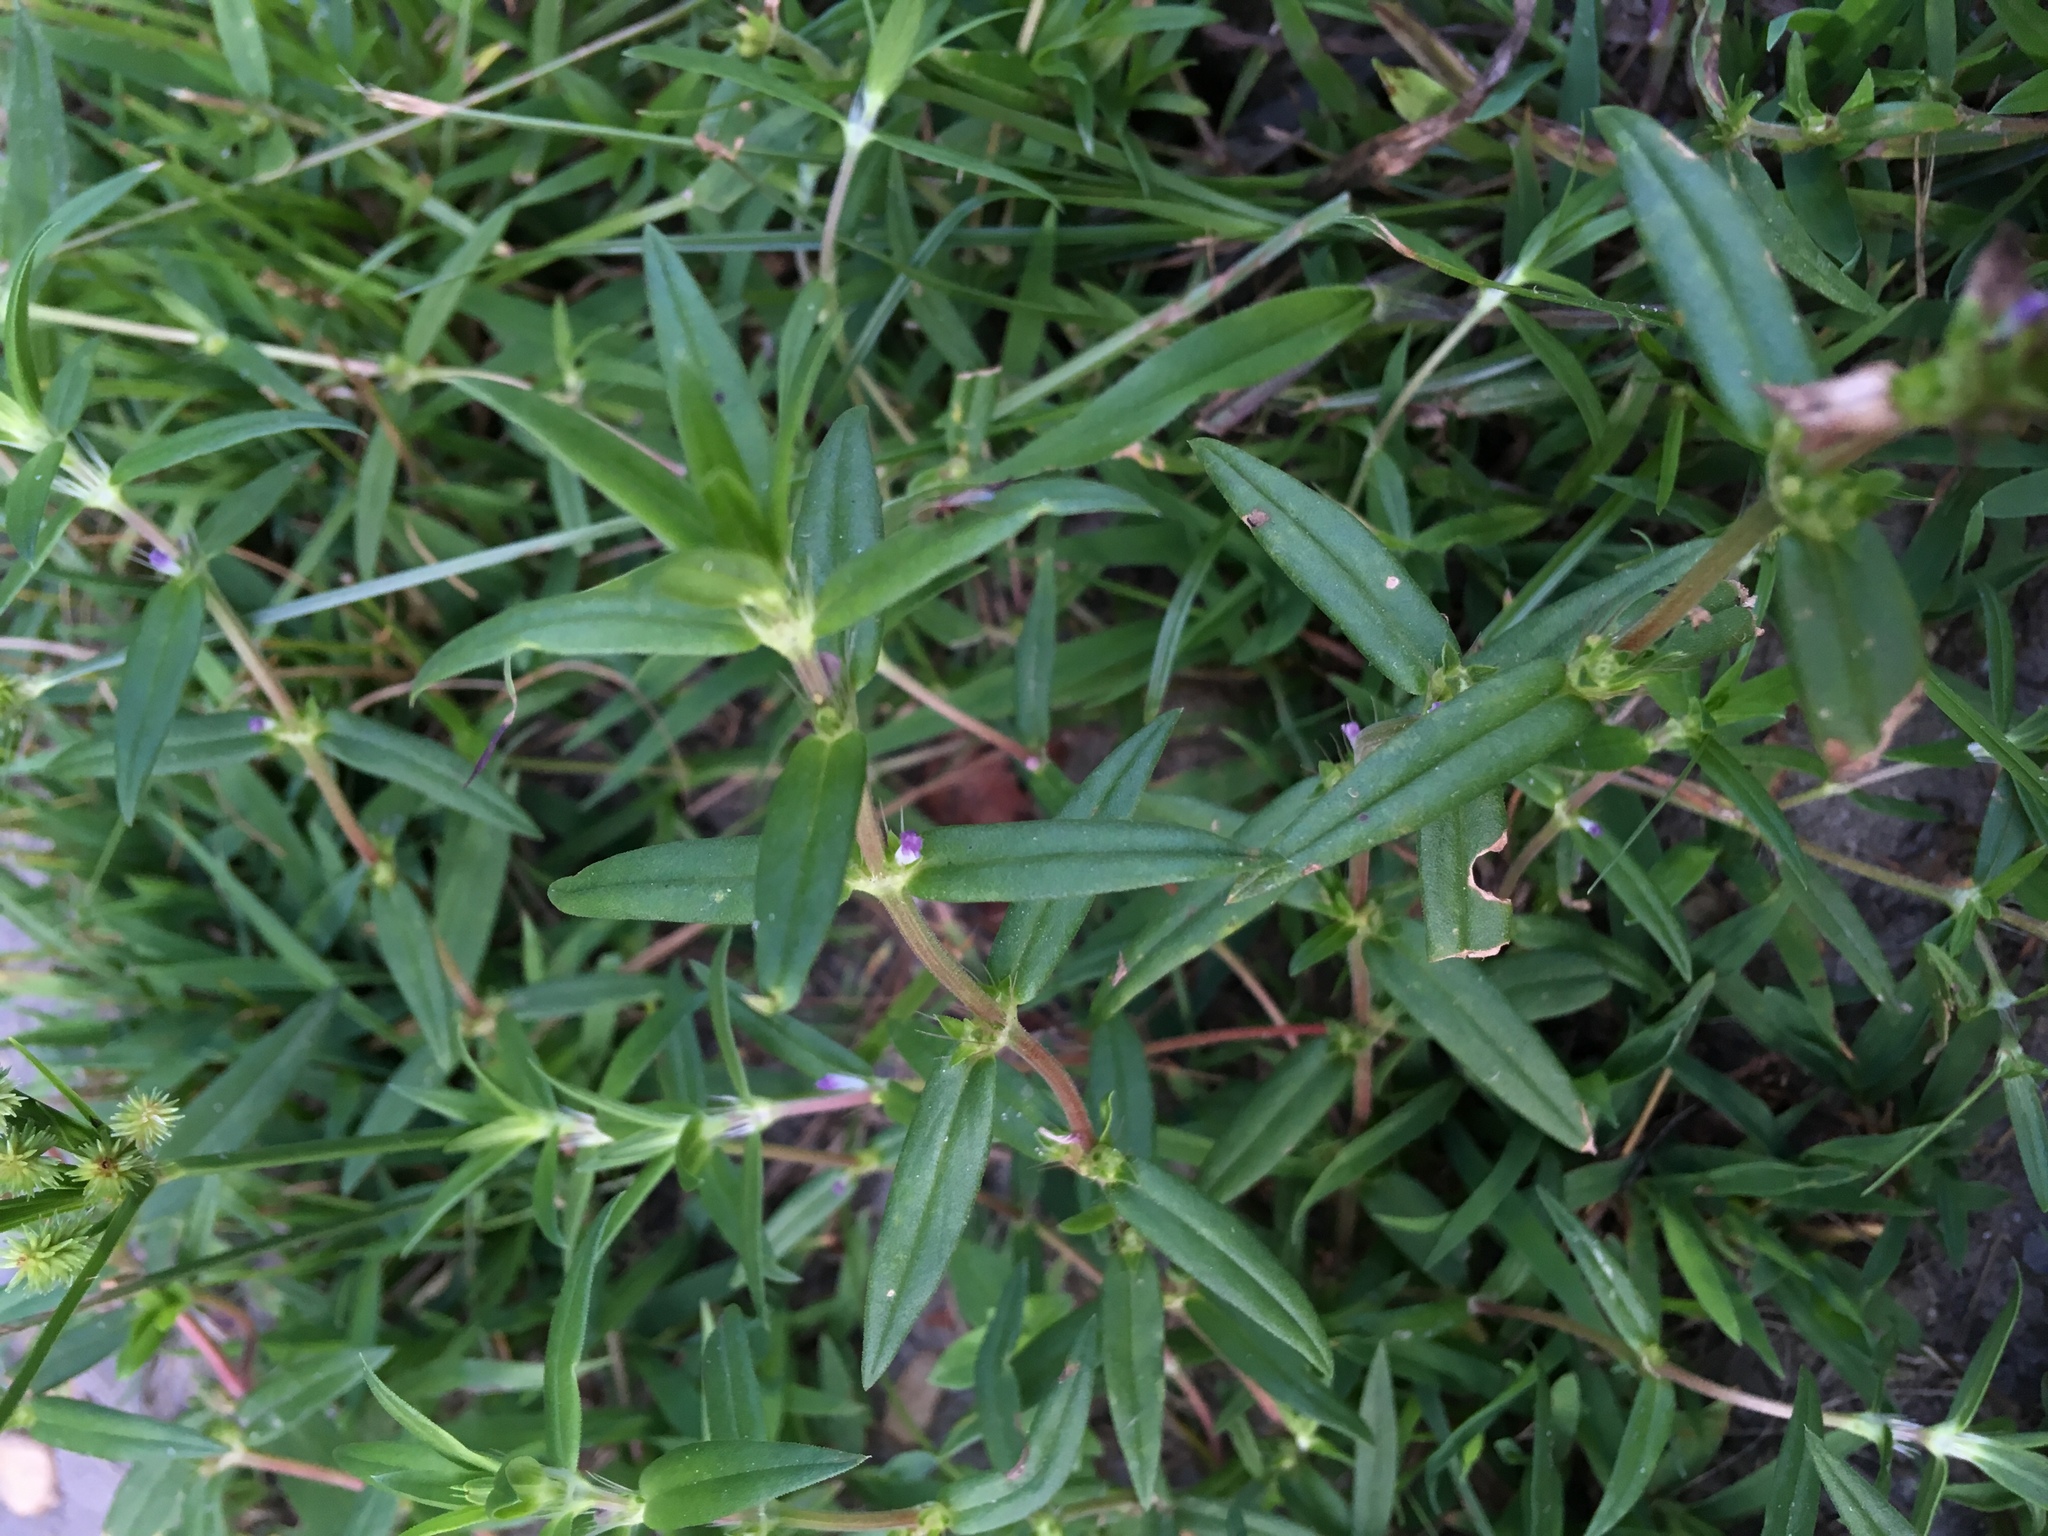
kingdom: Plantae
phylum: Tracheophyta
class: Magnoliopsida
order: Gentianales
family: Rubiaceae
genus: Hexasepalum
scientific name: Hexasepalum teres
